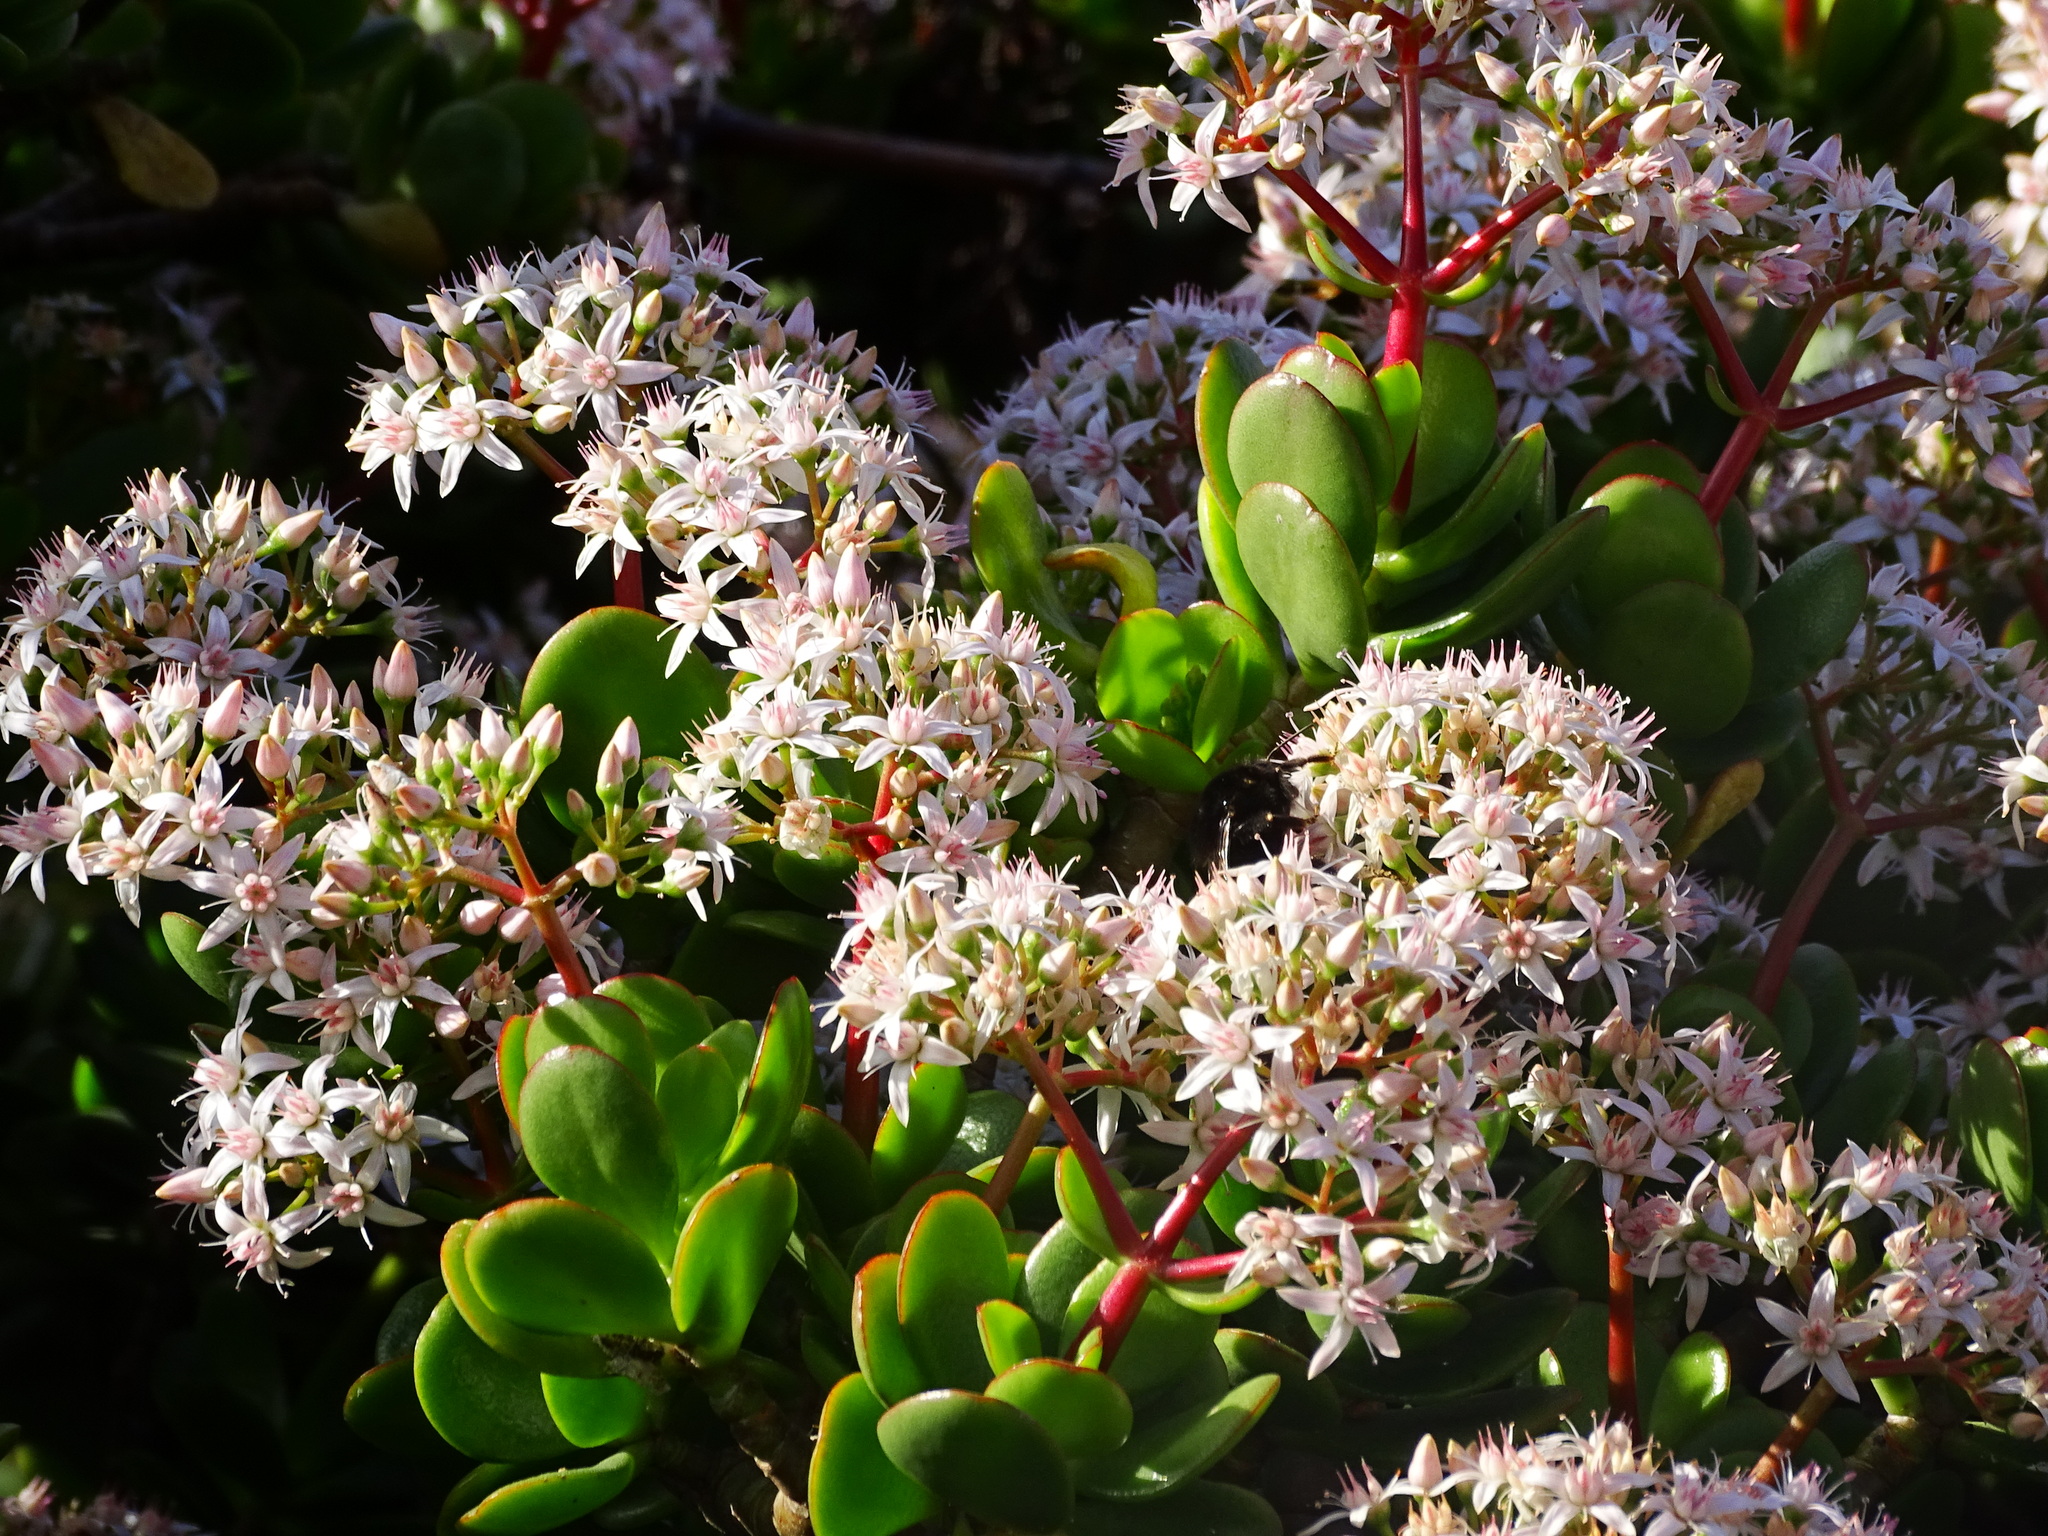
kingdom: Plantae
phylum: Tracheophyta
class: Magnoliopsida
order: Saxifragales
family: Crassulaceae
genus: Crassula
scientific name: Crassula multicava
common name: Cape province pygmyweed
